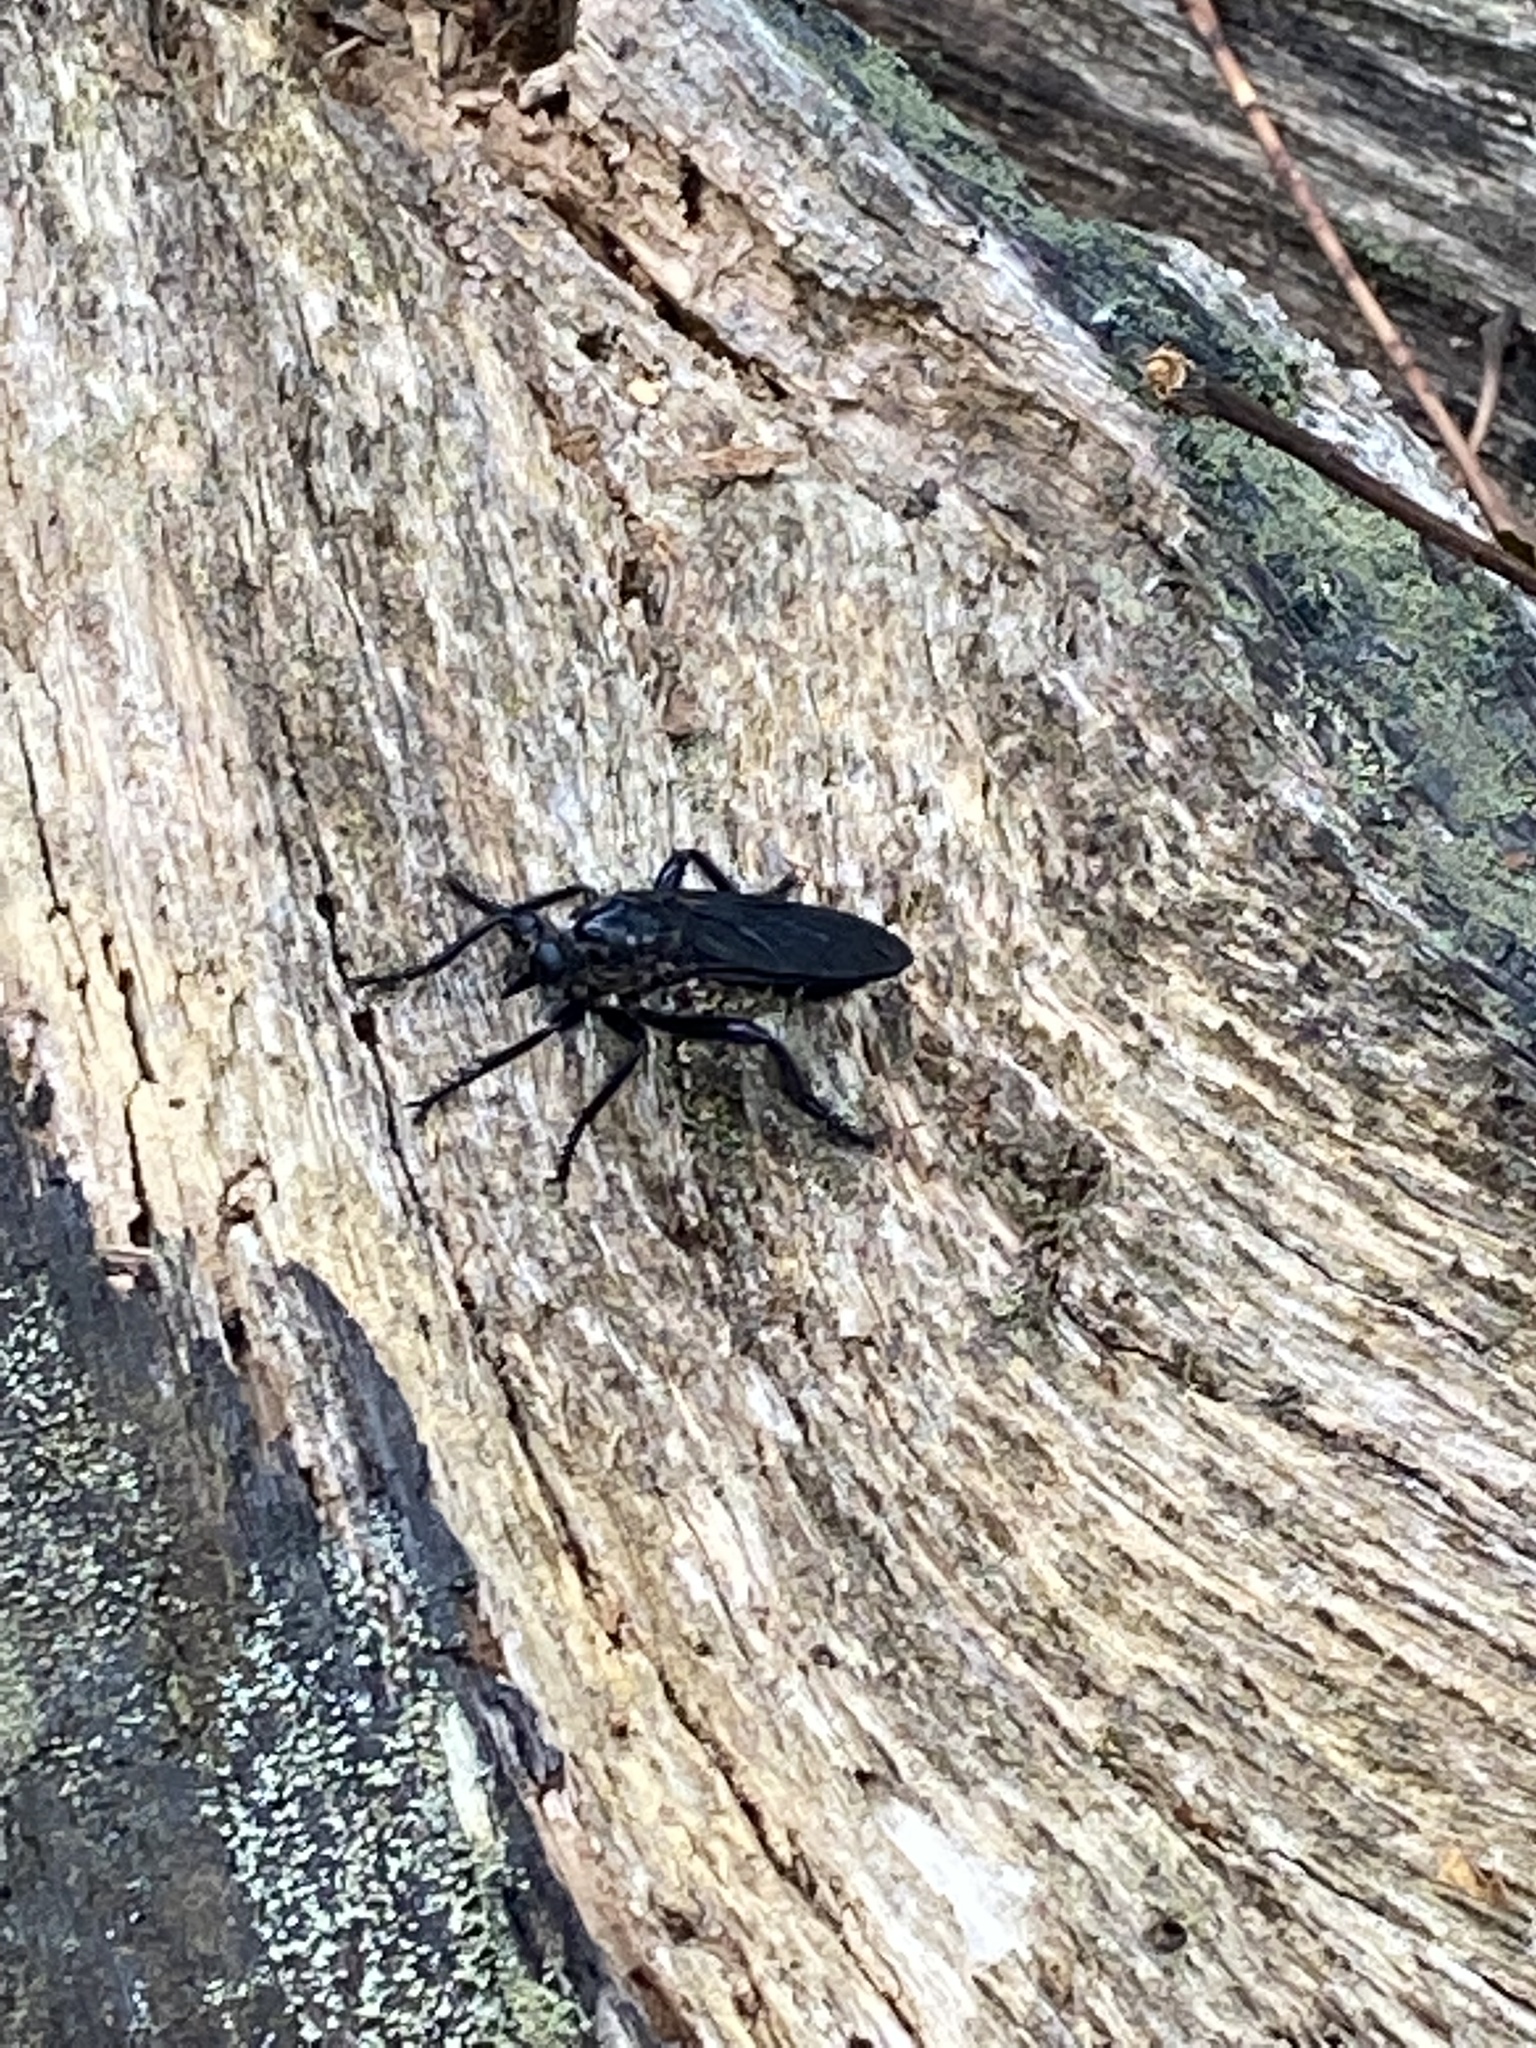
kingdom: Animalia
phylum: Arthropoda
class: Insecta
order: Diptera
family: Asilidae
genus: Orthogonis
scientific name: Orthogonis stygia
